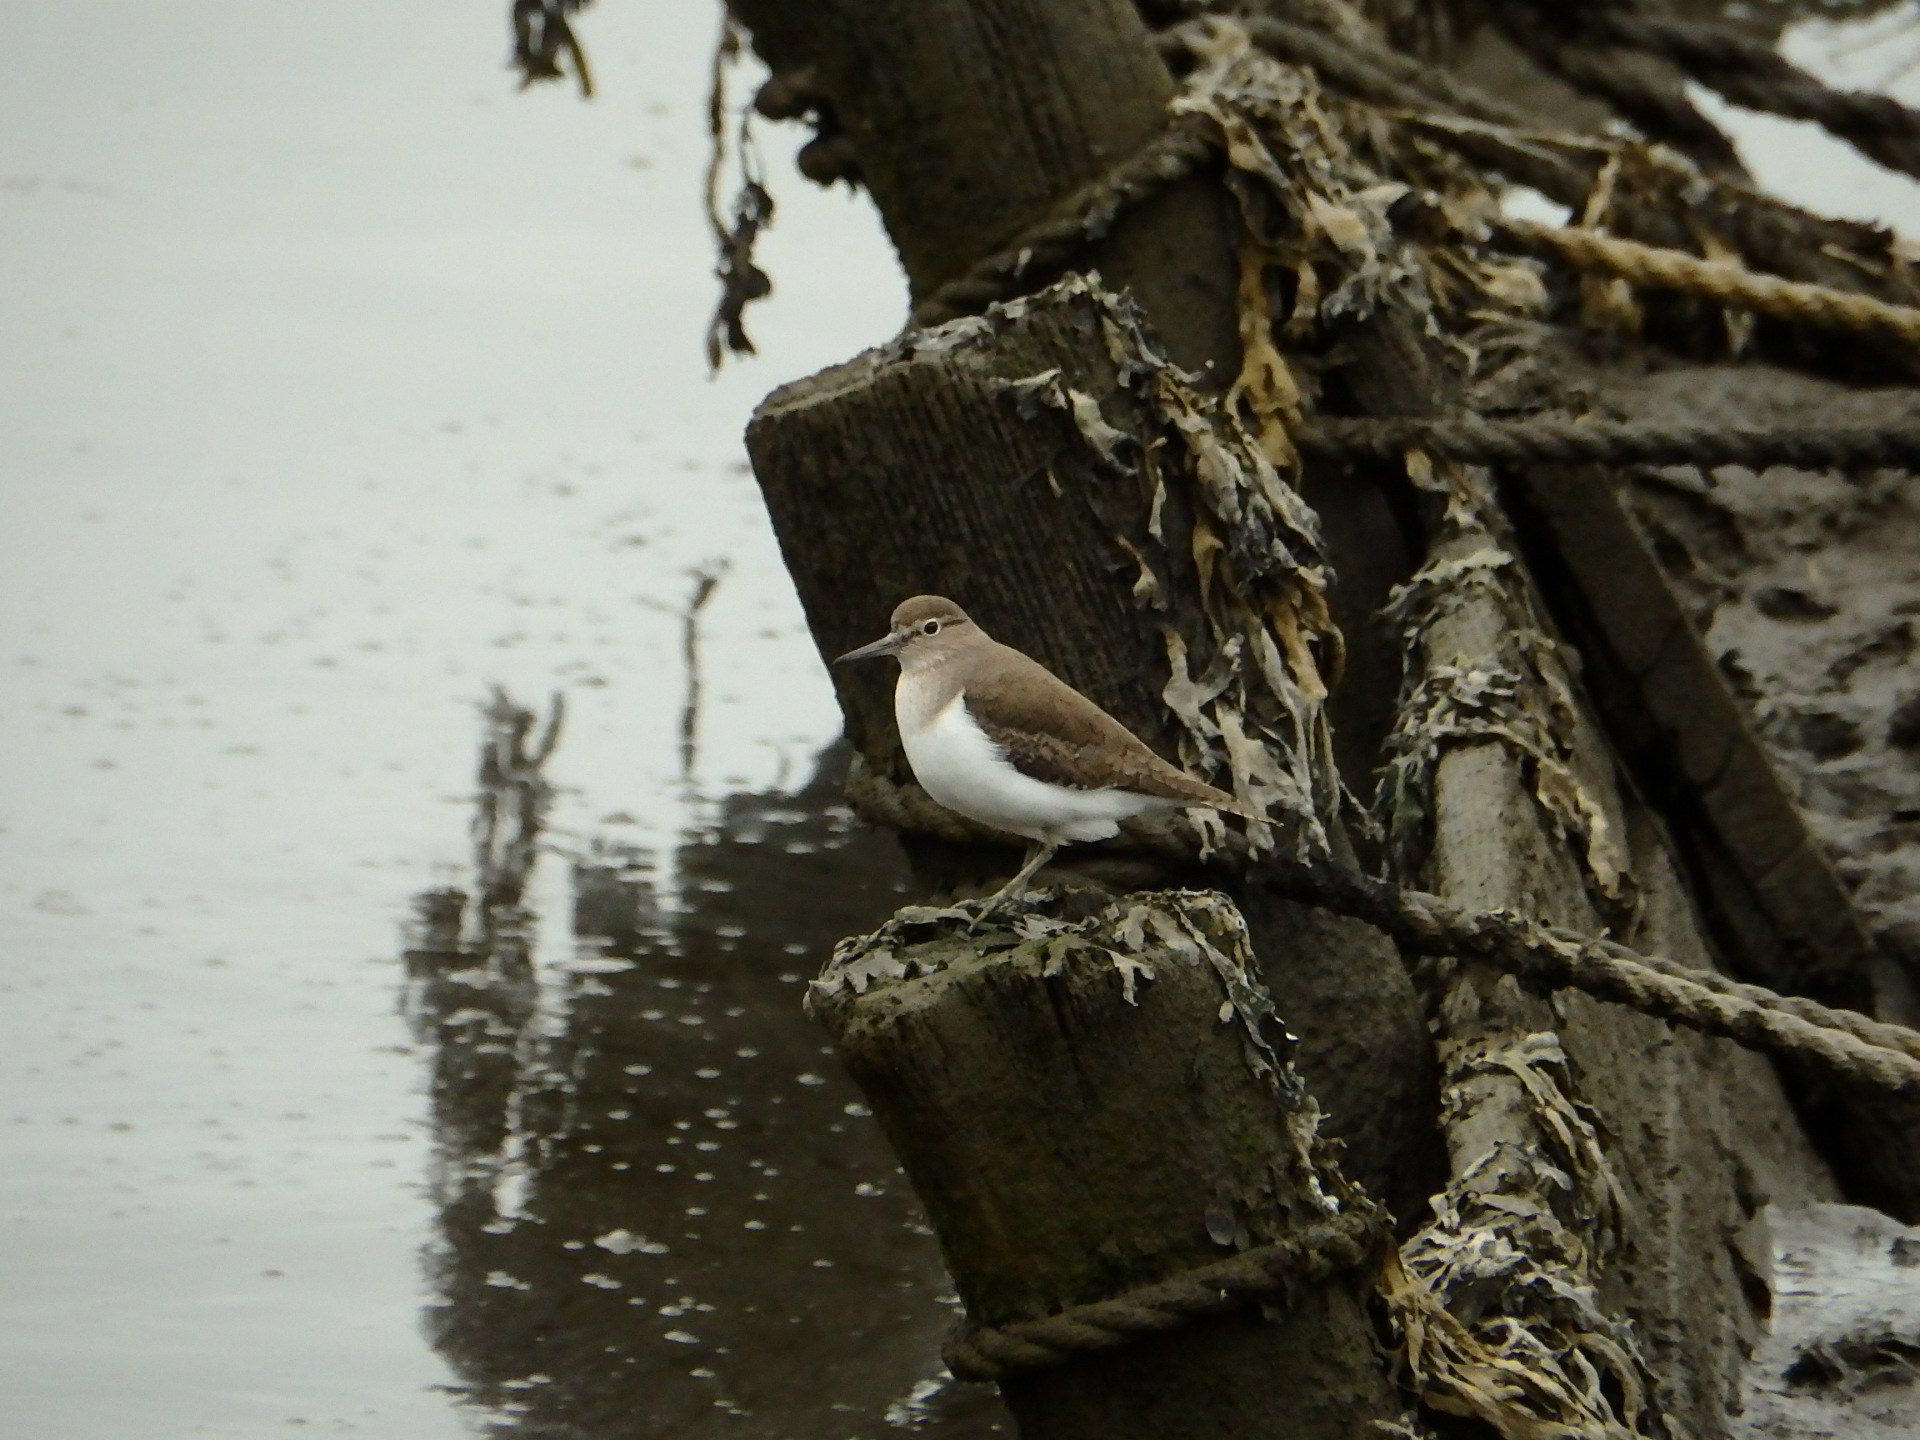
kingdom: Animalia
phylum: Chordata
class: Aves
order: Charadriiformes
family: Scolopacidae
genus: Actitis
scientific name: Actitis hypoleucos
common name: Common sandpiper
